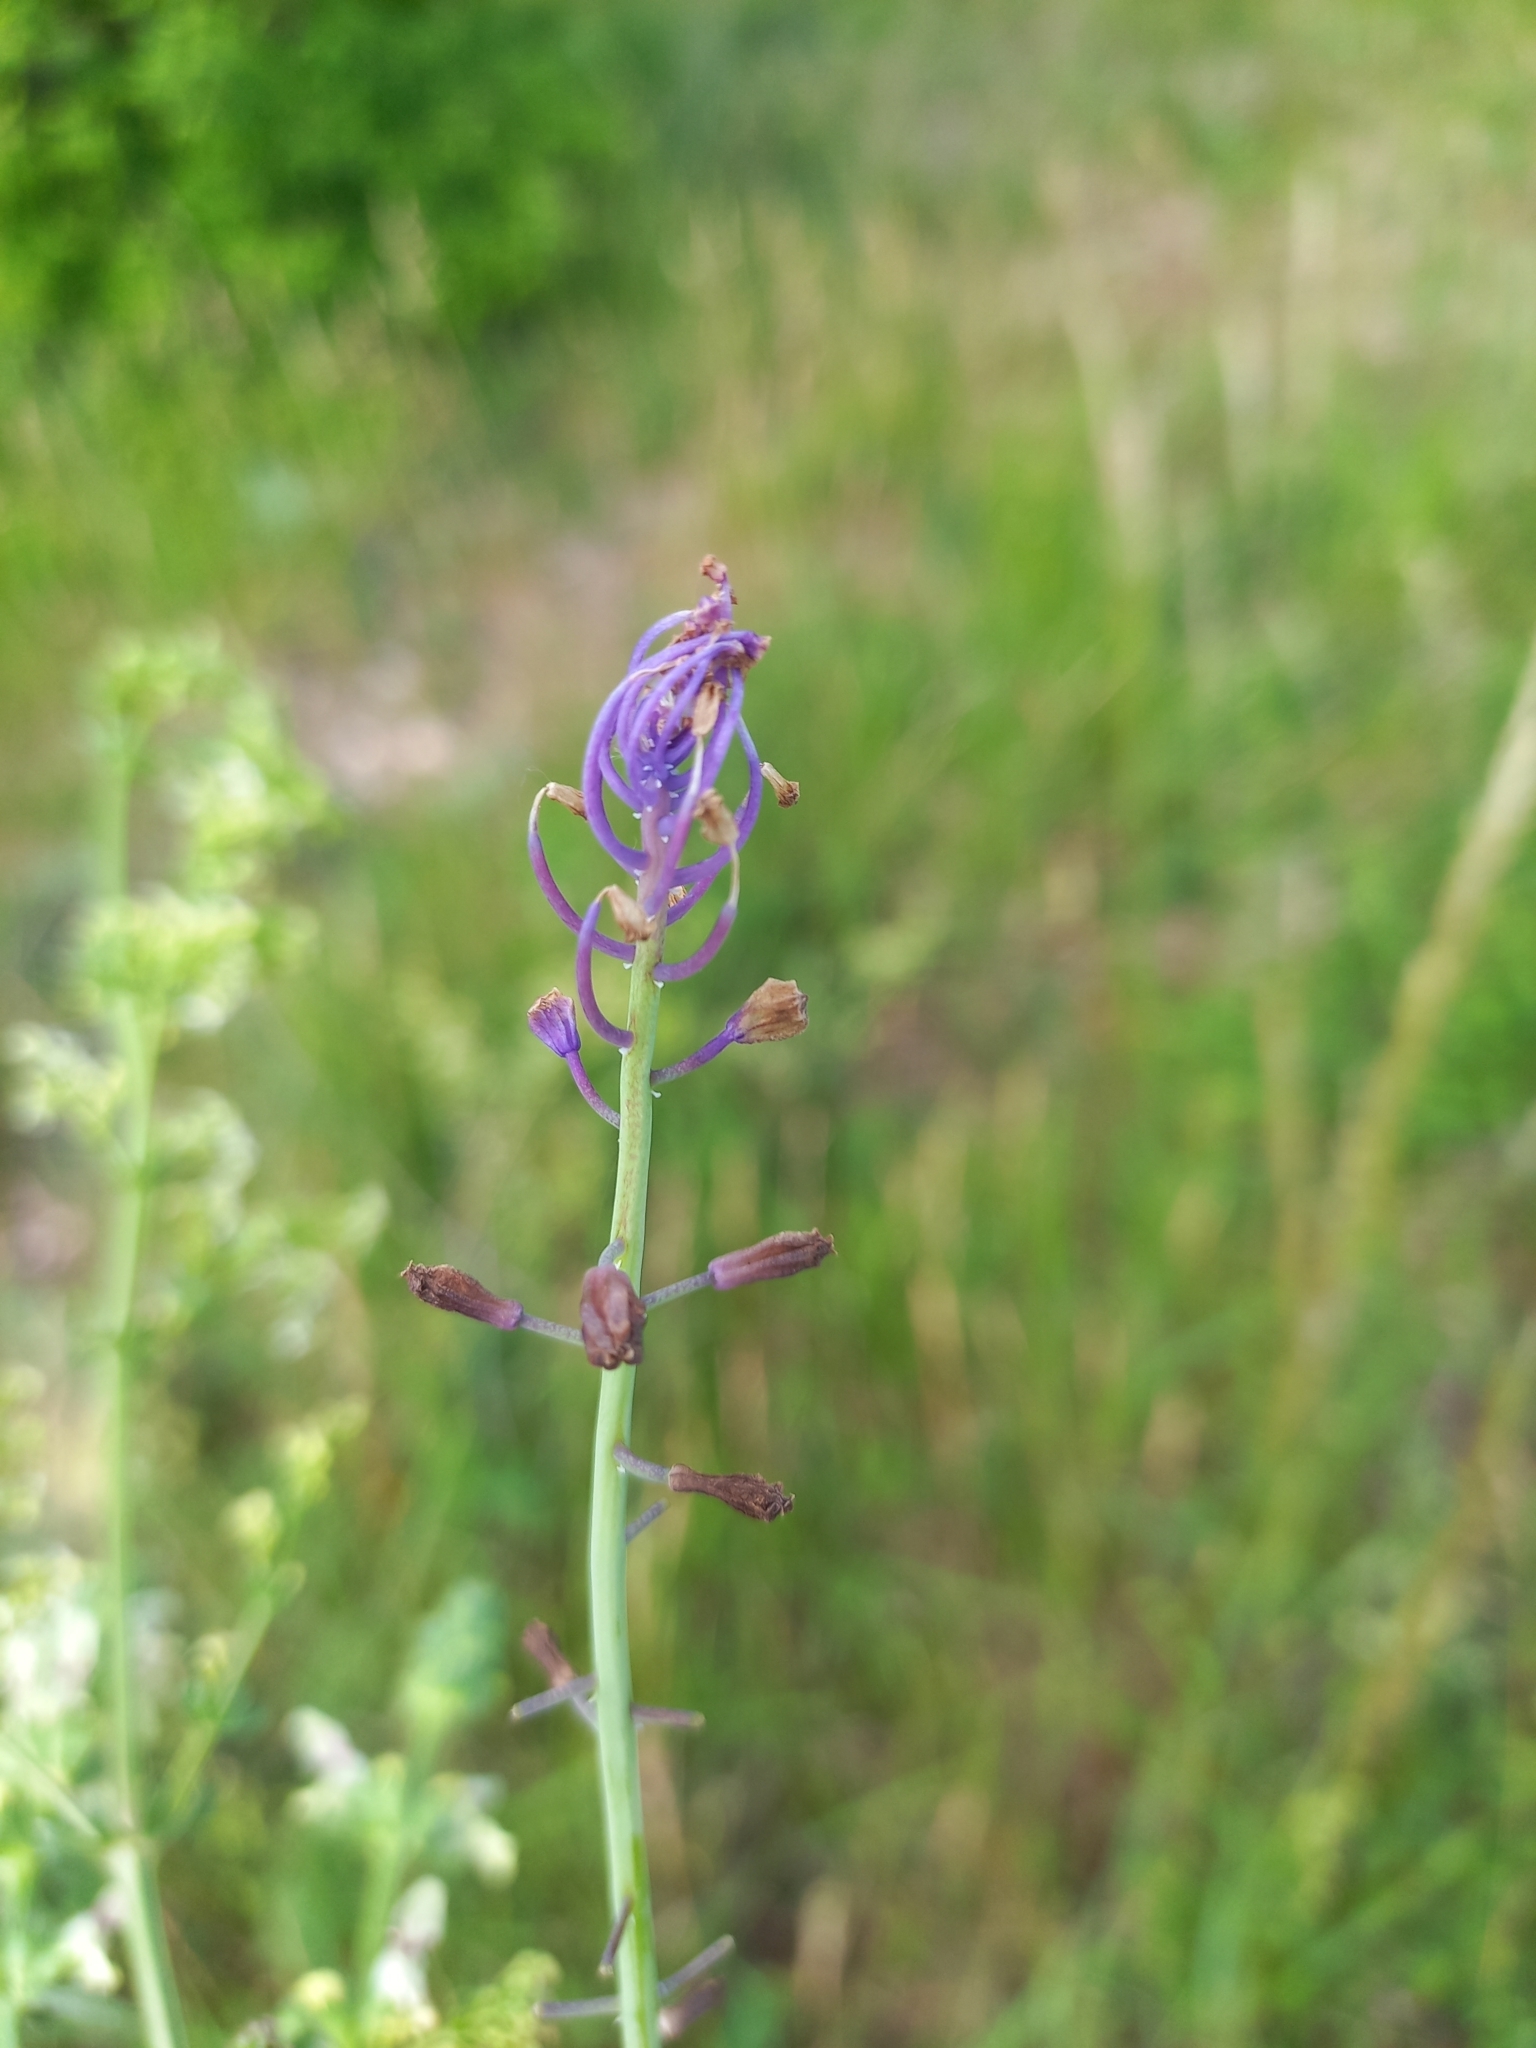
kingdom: Plantae
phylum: Tracheophyta
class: Liliopsida
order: Asparagales
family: Asparagaceae
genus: Muscari
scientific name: Muscari comosum
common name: Tassel hyacinth
